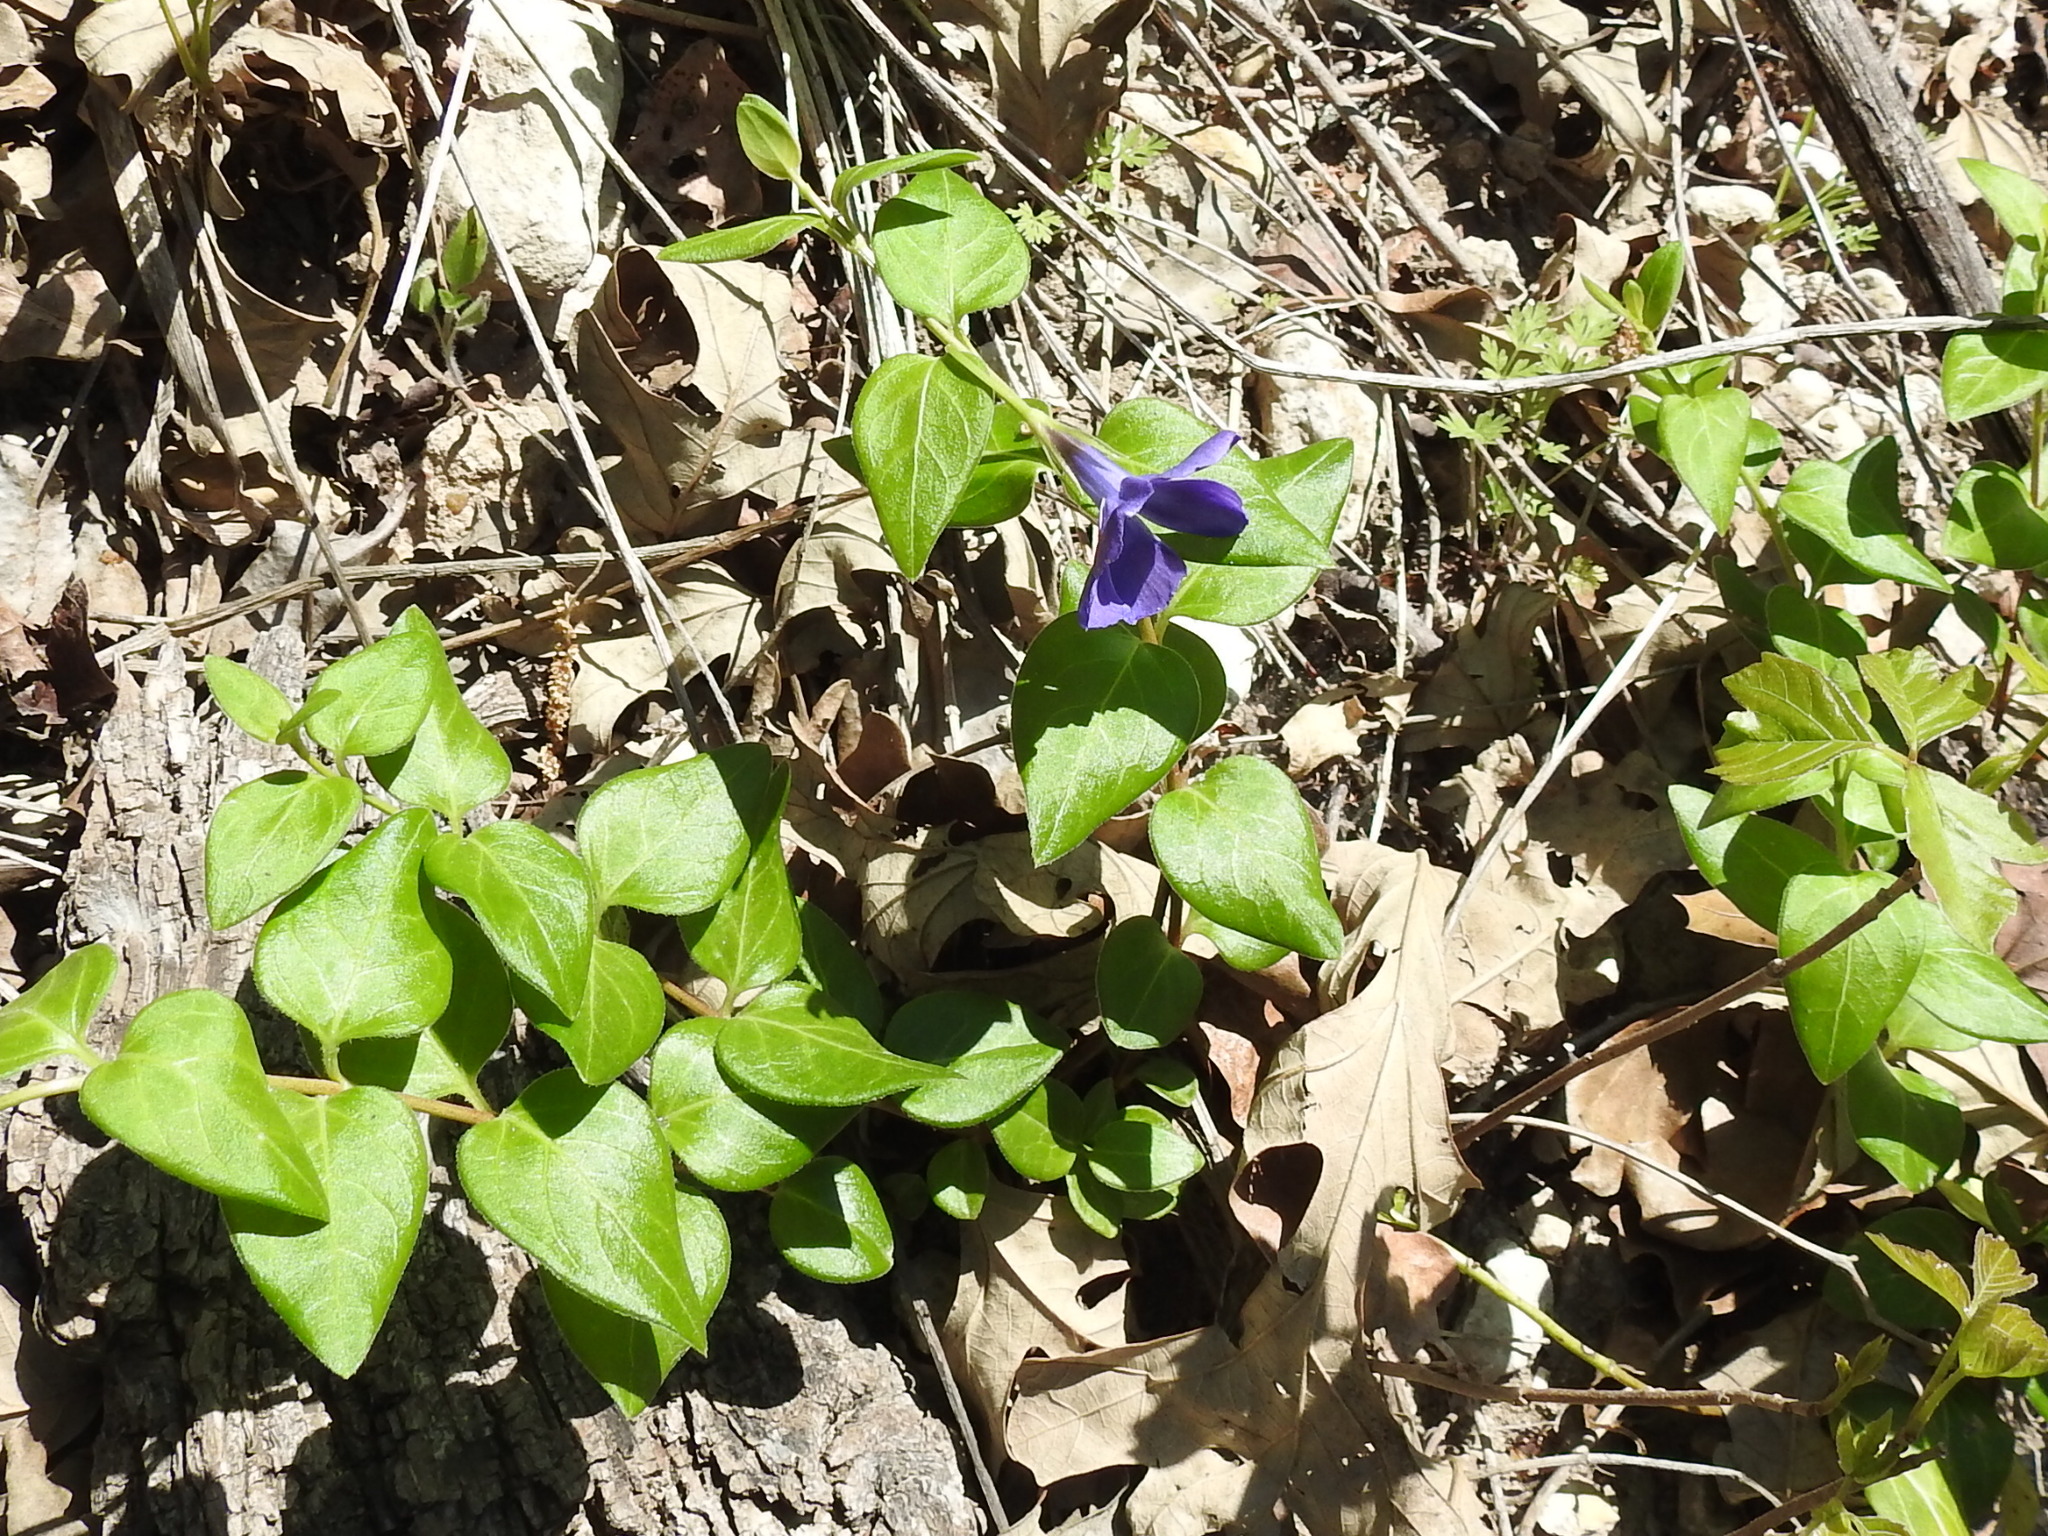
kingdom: Plantae
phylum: Tracheophyta
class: Magnoliopsida
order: Gentianales
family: Apocynaceae
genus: Vinca
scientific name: Vinca major
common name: Greater periwinkle
